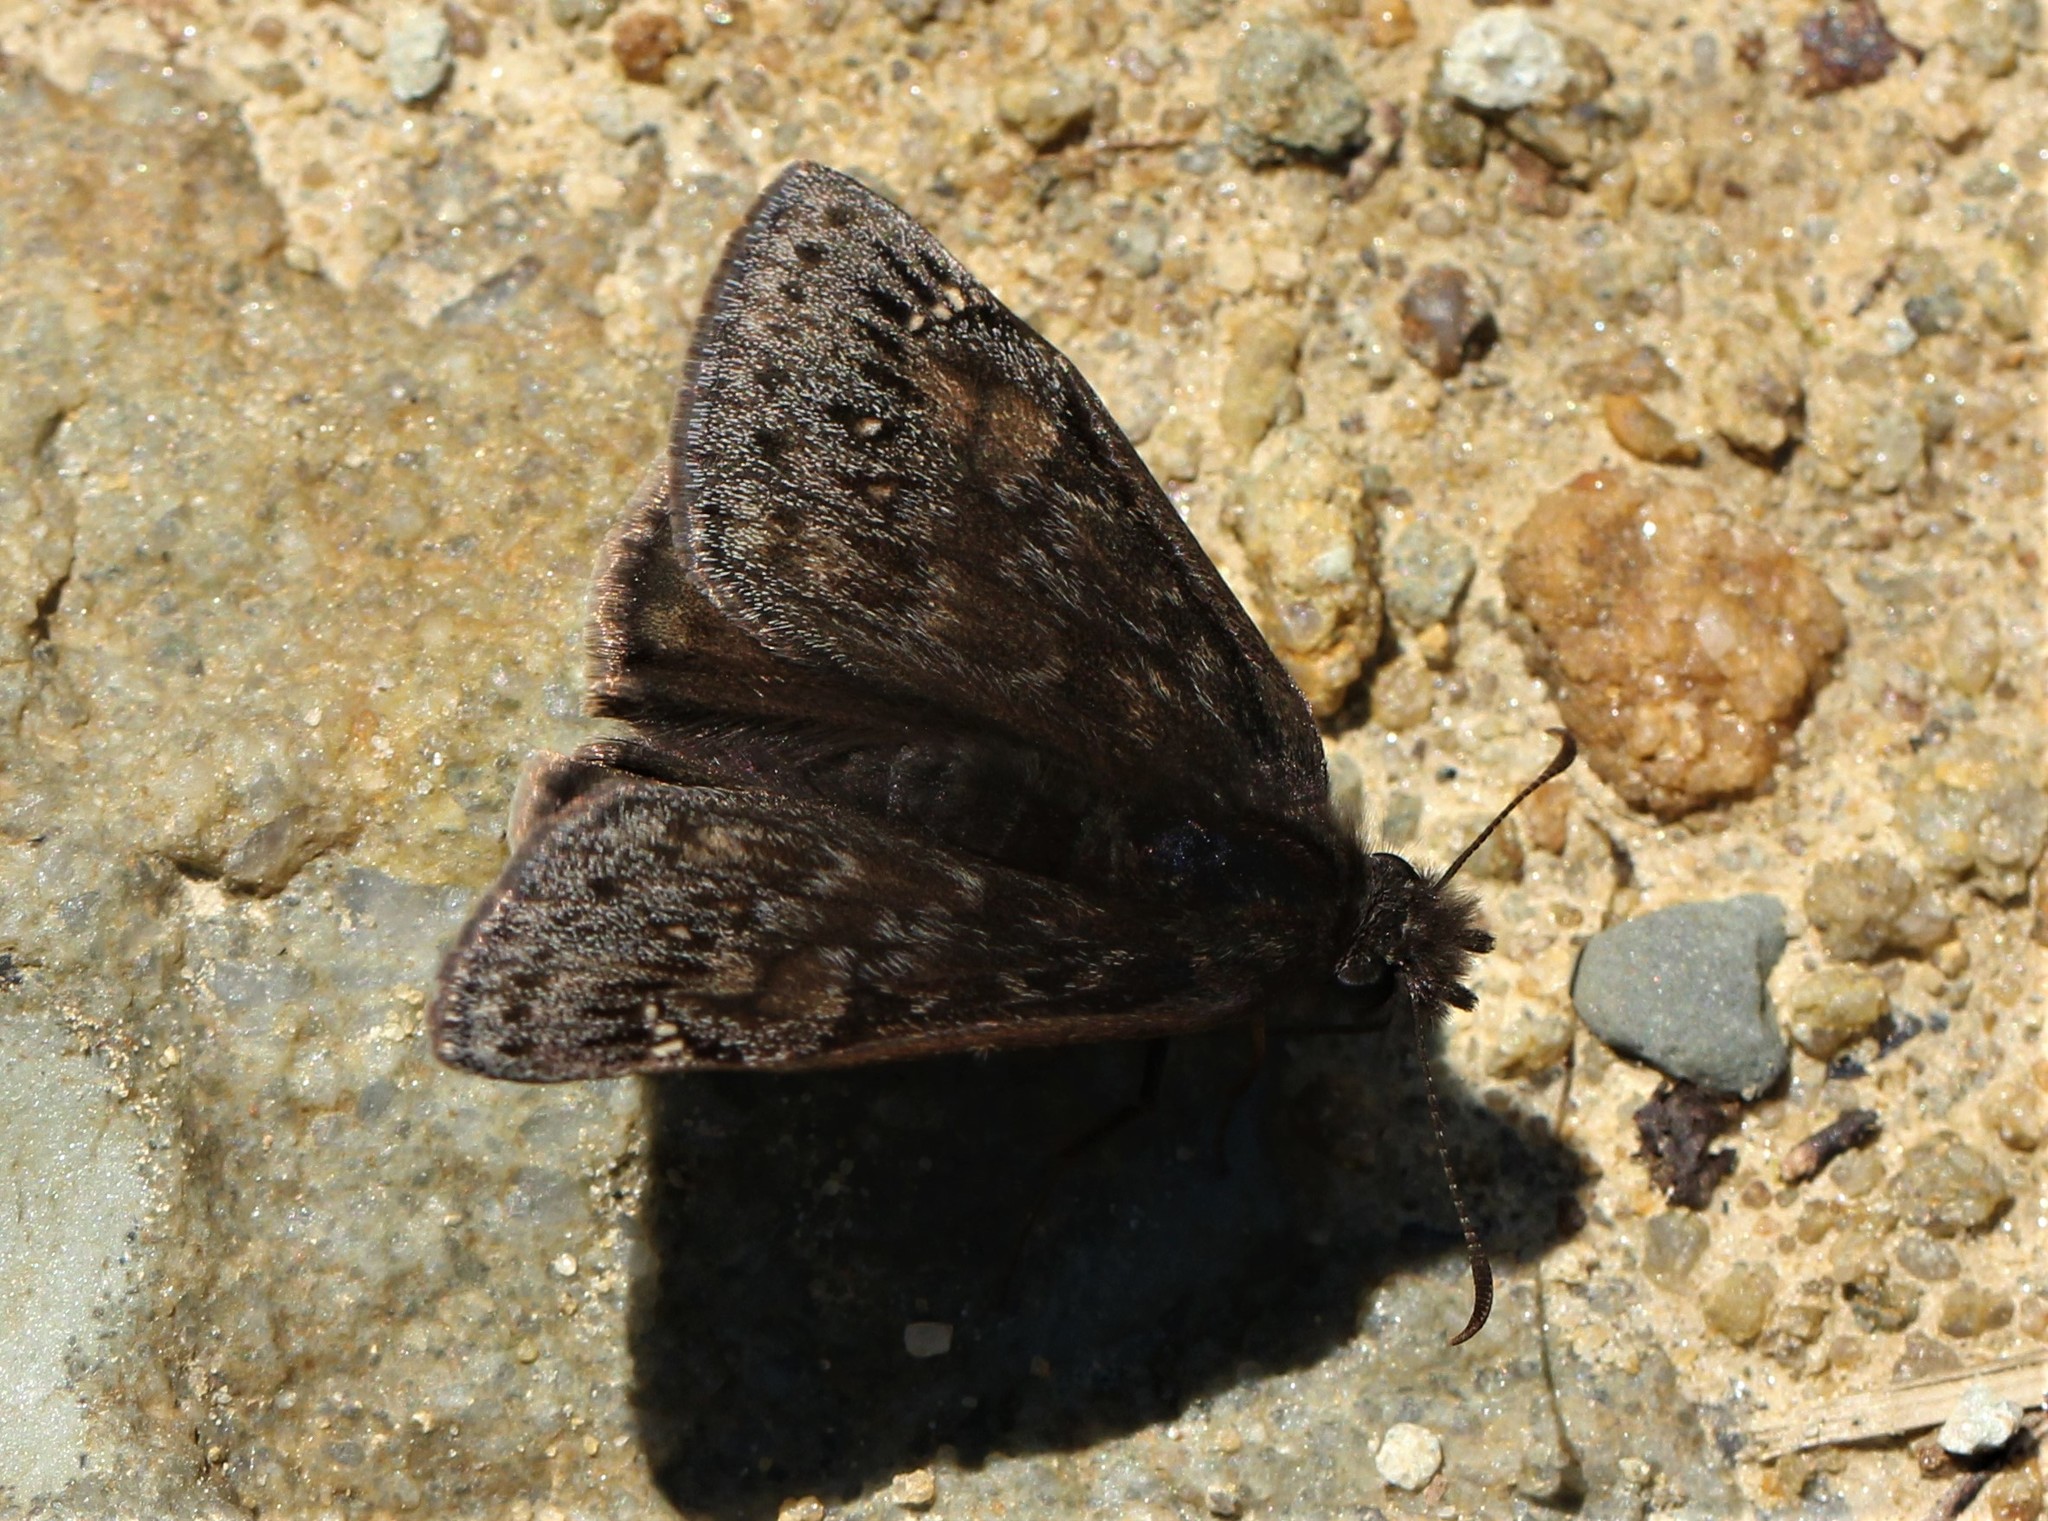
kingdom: Animalia
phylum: Arthropoda
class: Insecta
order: Lepidoptera
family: Hesperiidae
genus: Erynnis
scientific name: Erynnis juvenalis
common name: Juvenal's duskywing
